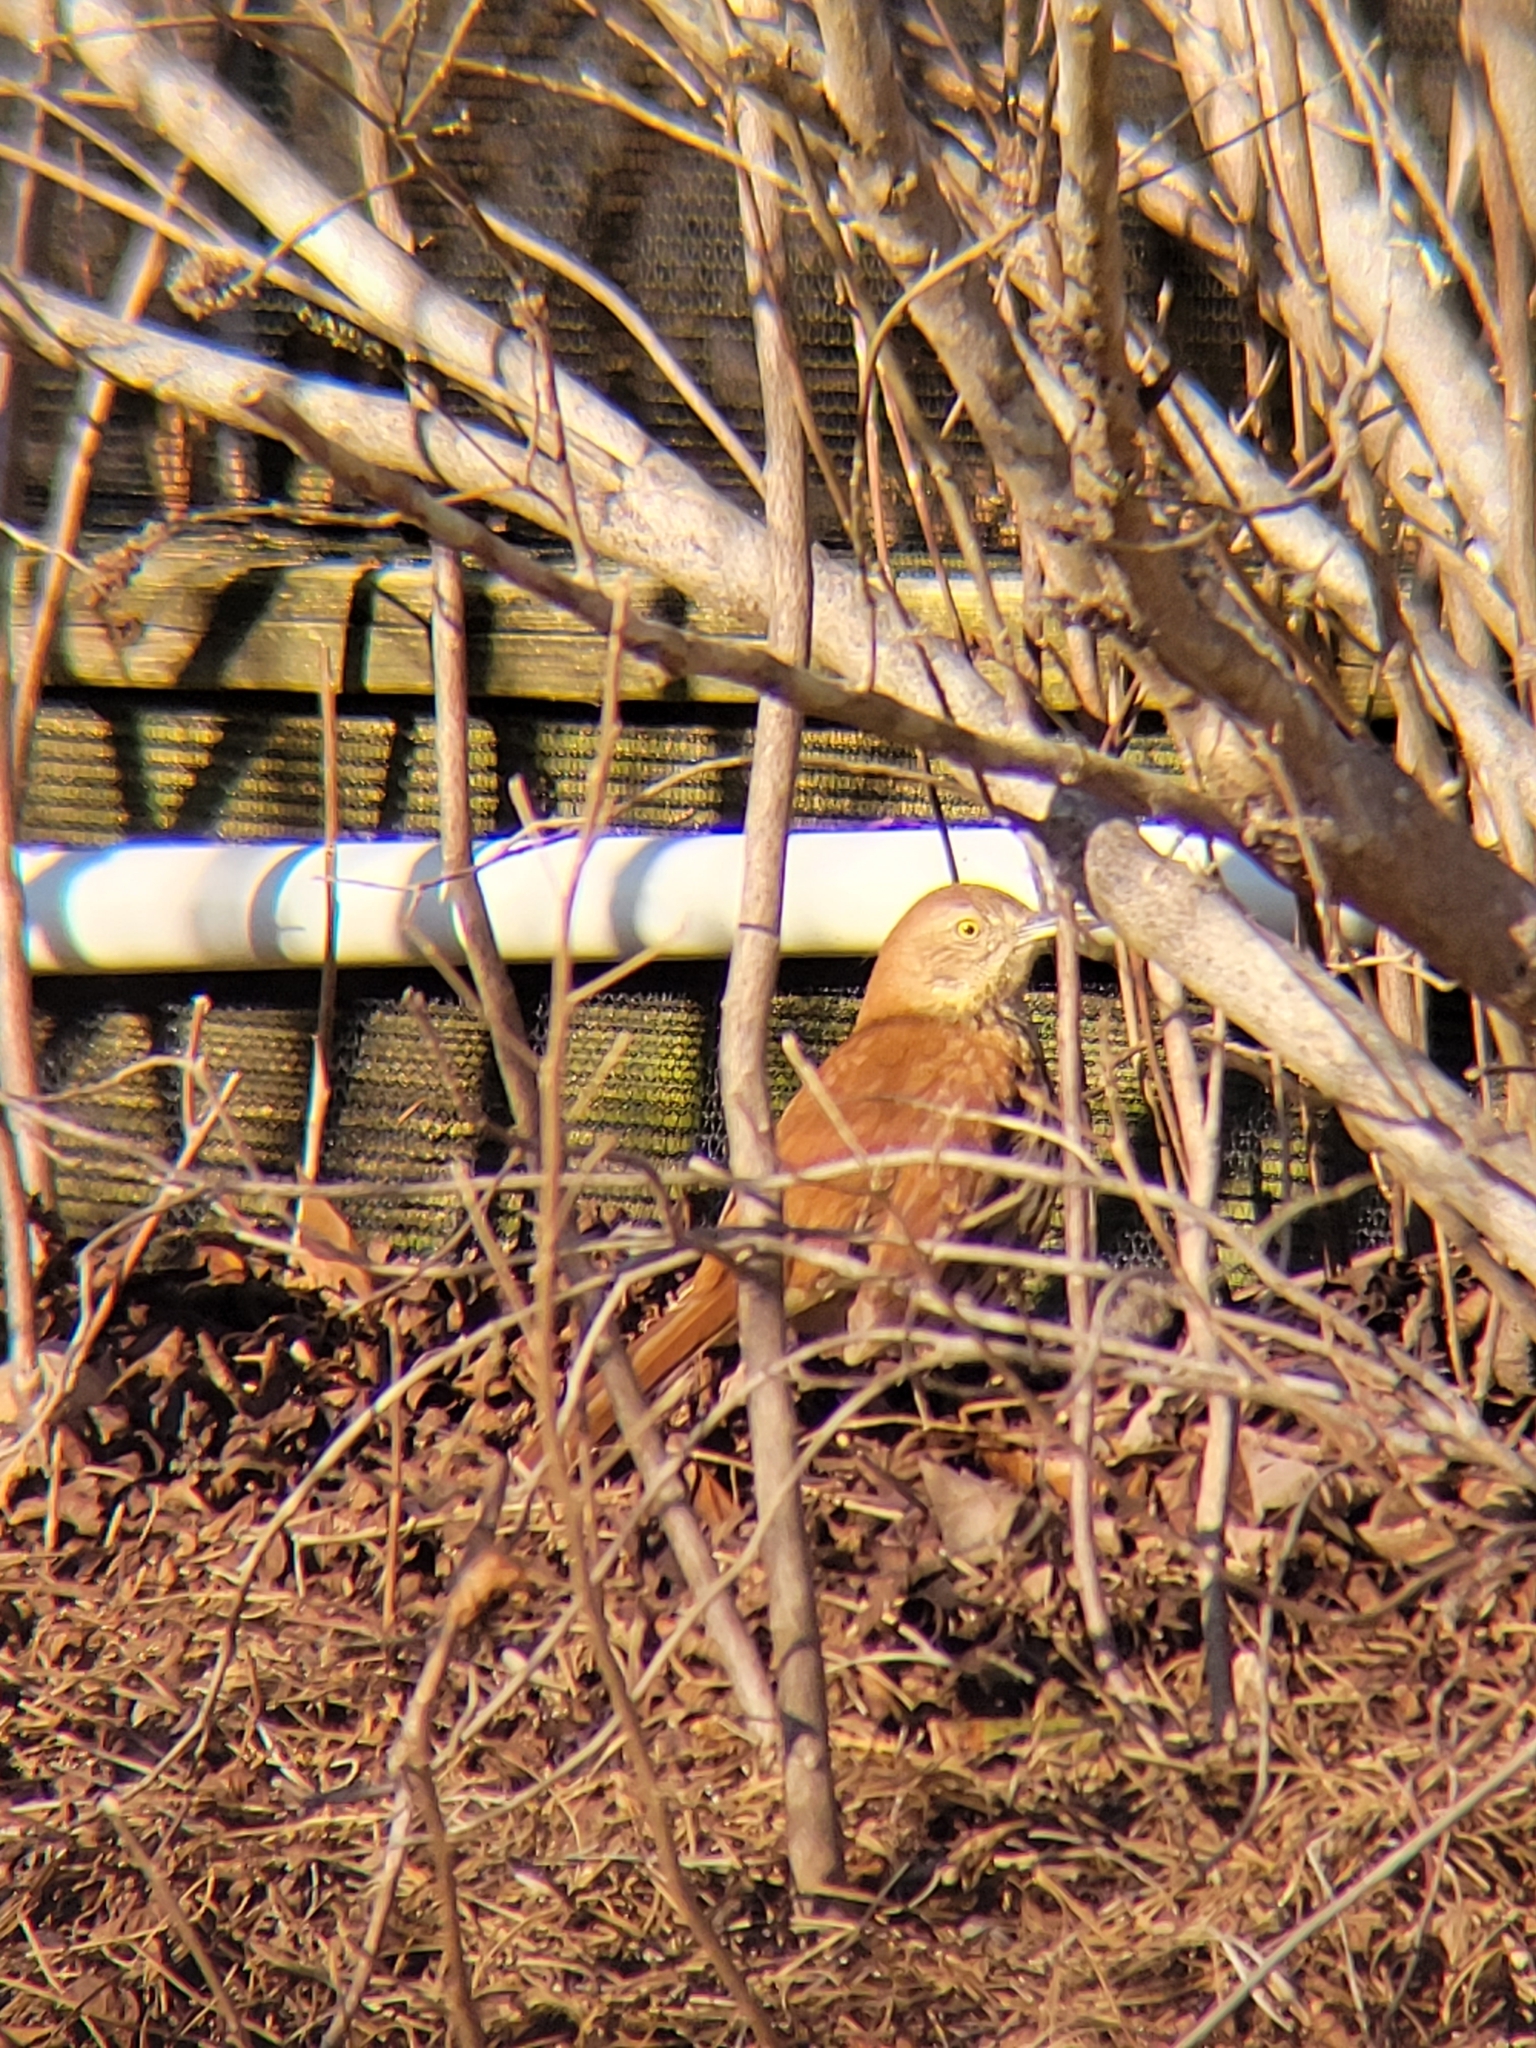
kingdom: Animalia
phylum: Chordata
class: Aves
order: Passeriformes
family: Mimidae
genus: Toxostoma
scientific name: Toxostoma rufum
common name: Brown thrasher
